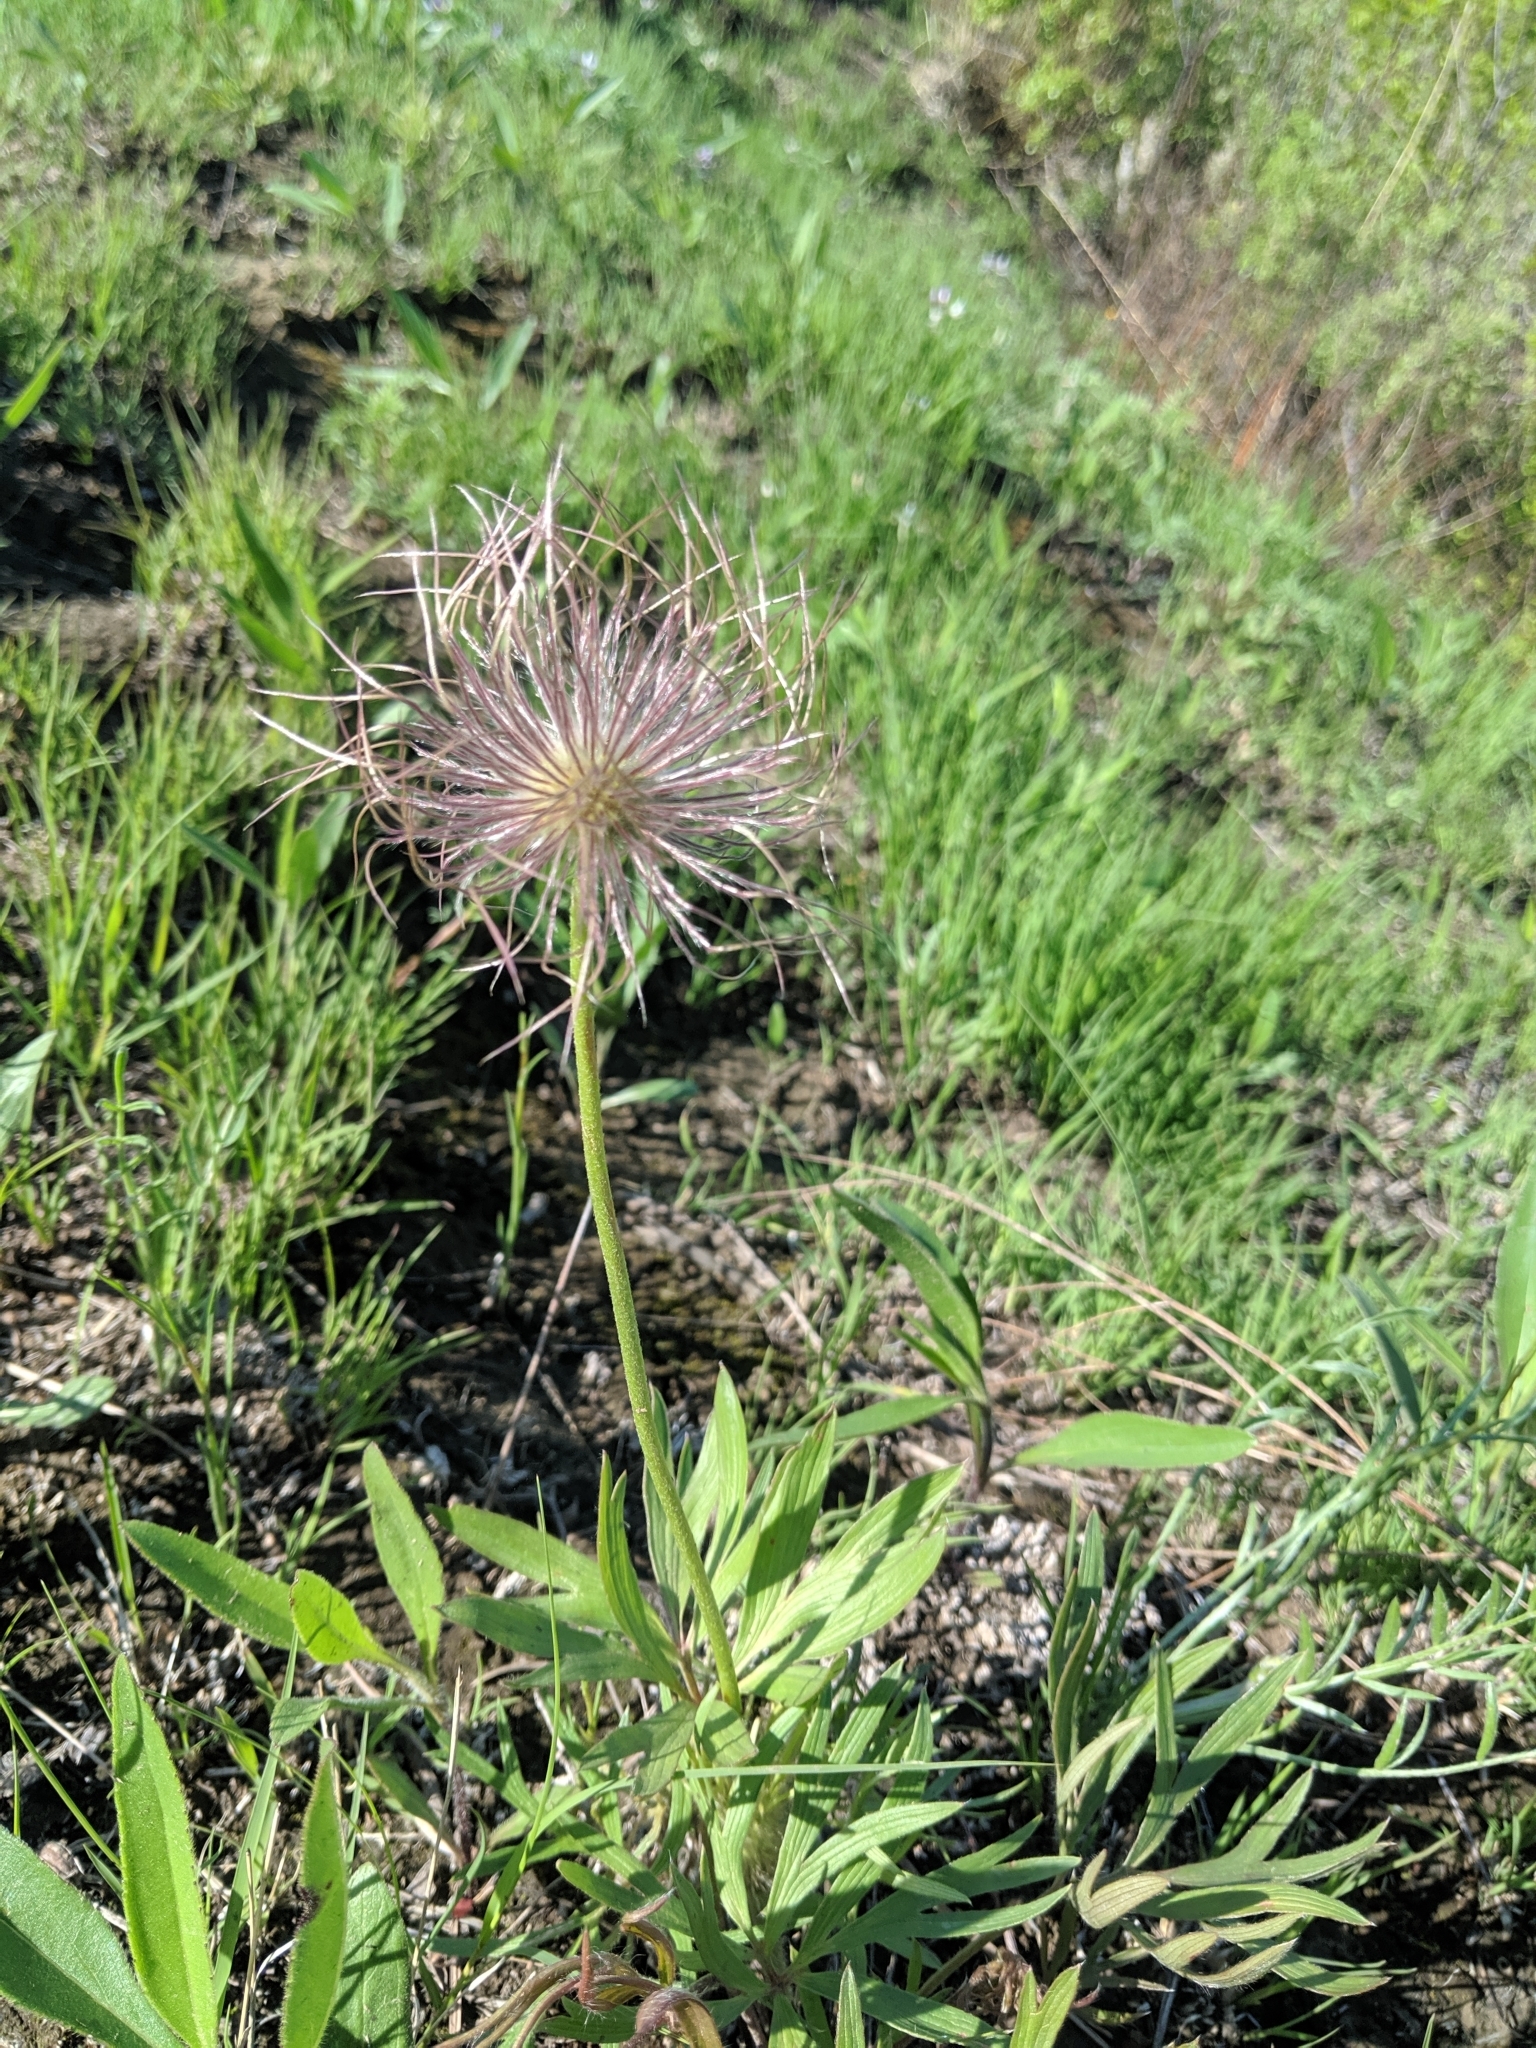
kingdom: Plantae
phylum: Tracheophyta
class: Magnoliopsida
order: Ranunculales
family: Ranunculaceae
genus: Pulsatilla
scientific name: Pulsatilla nuttalliana
